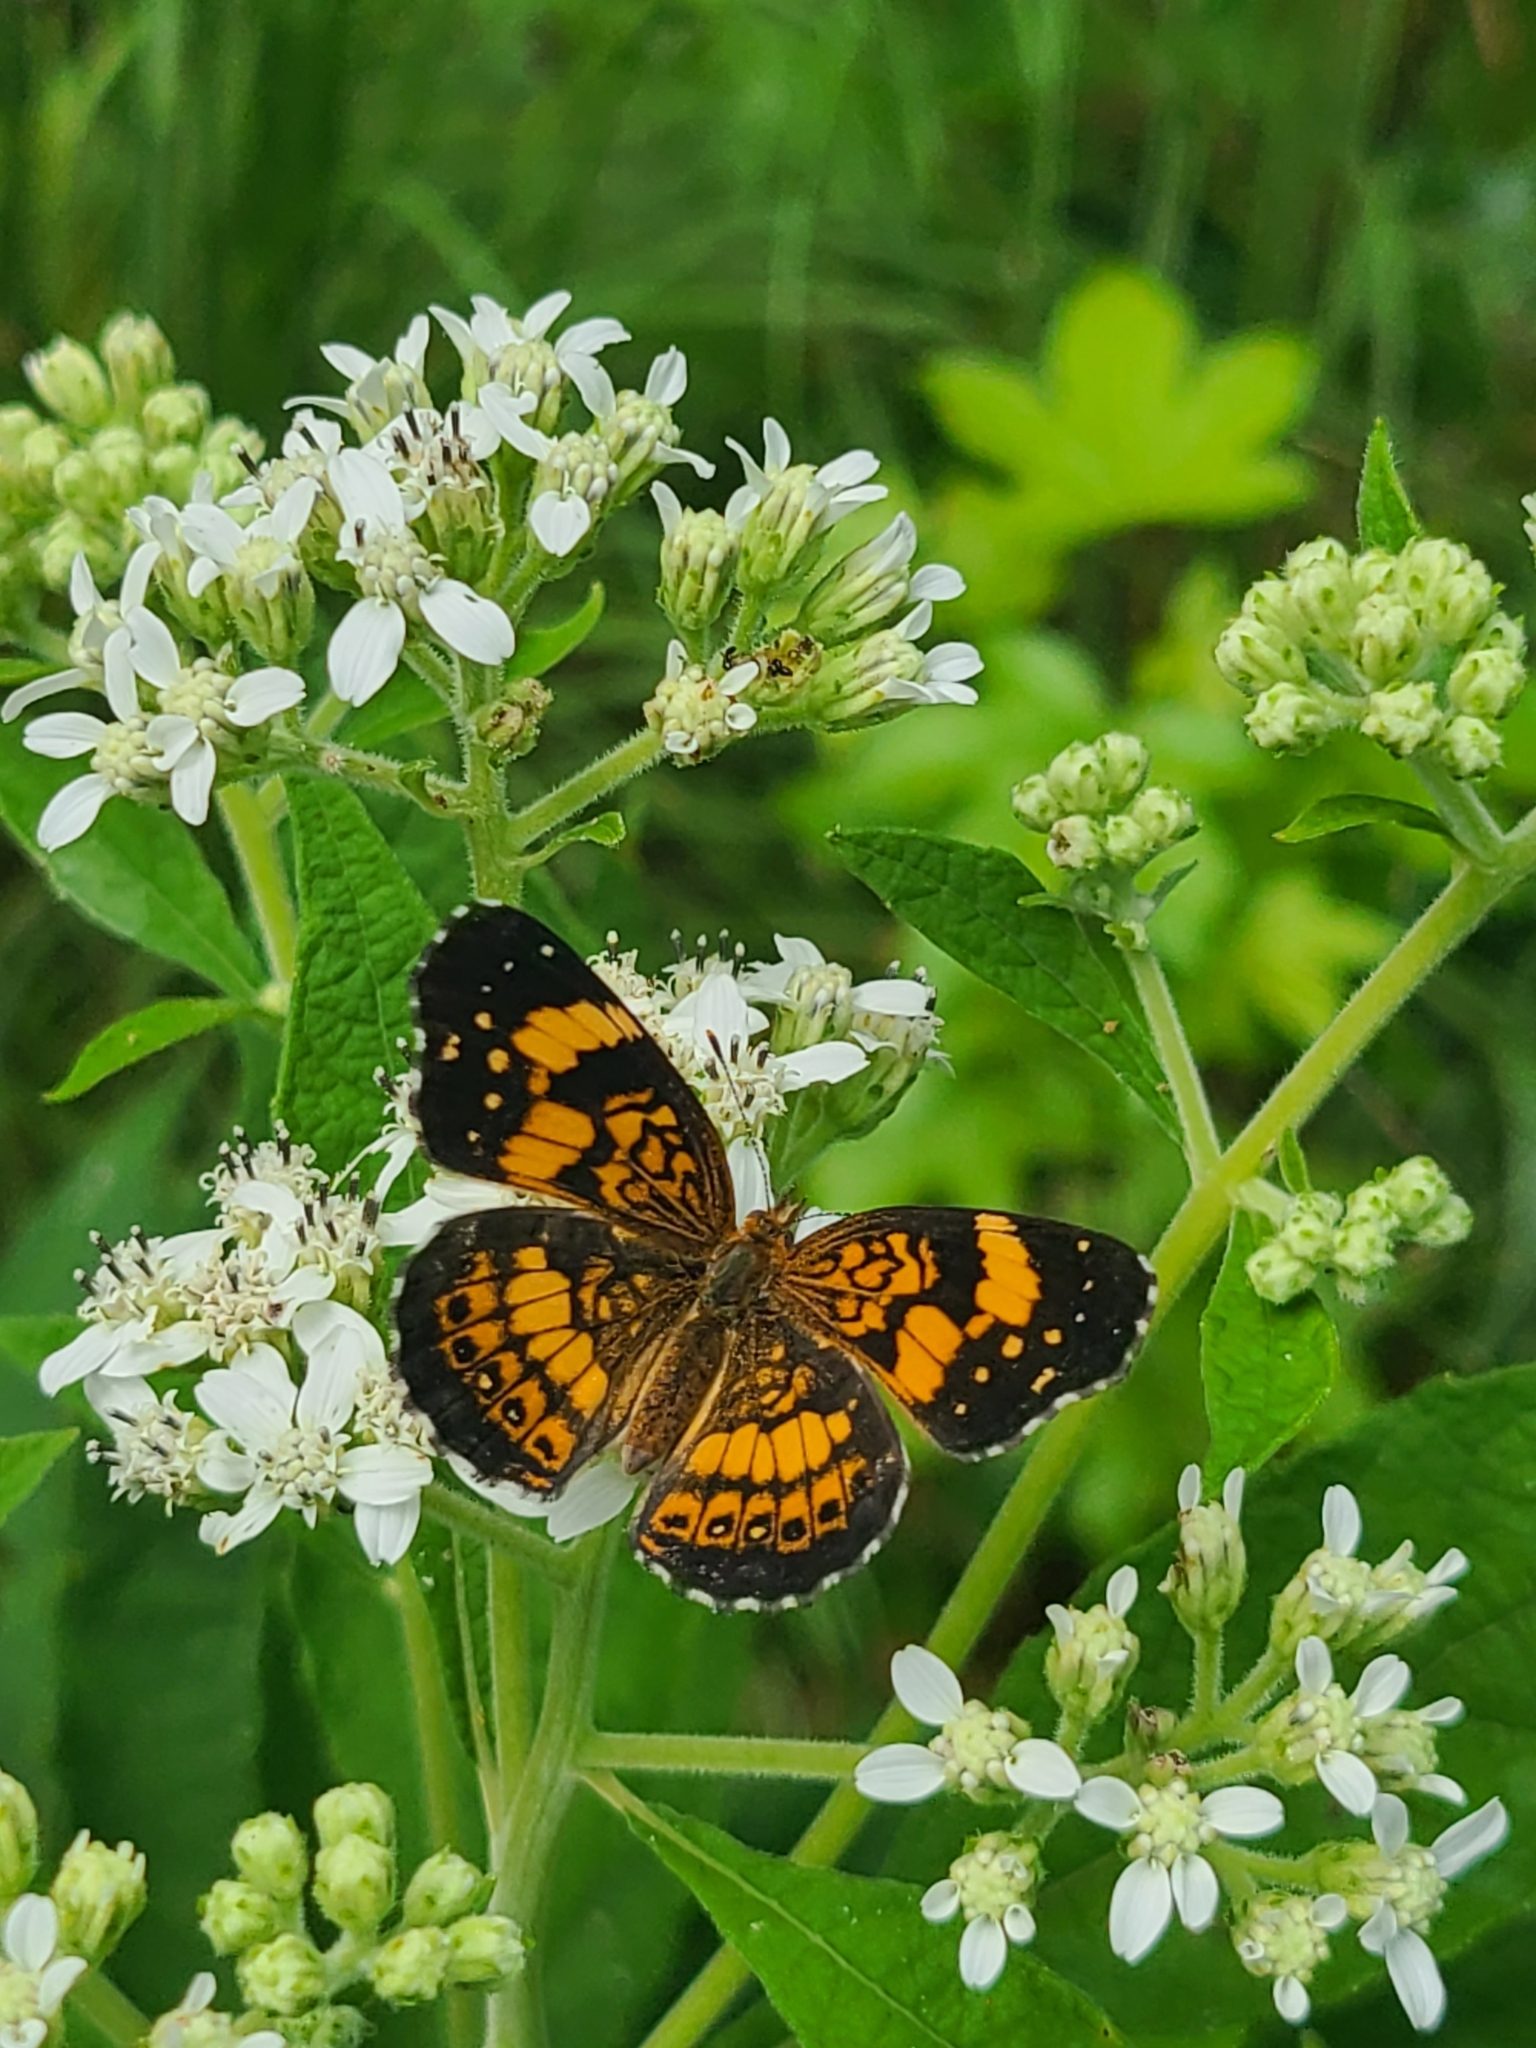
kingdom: Animalia
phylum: Arthropoda
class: Insecta
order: Lepidoptera
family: Nymphalidae
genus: Chlosyne
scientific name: Chlosyne nycteis
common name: Silvery checkerspot
